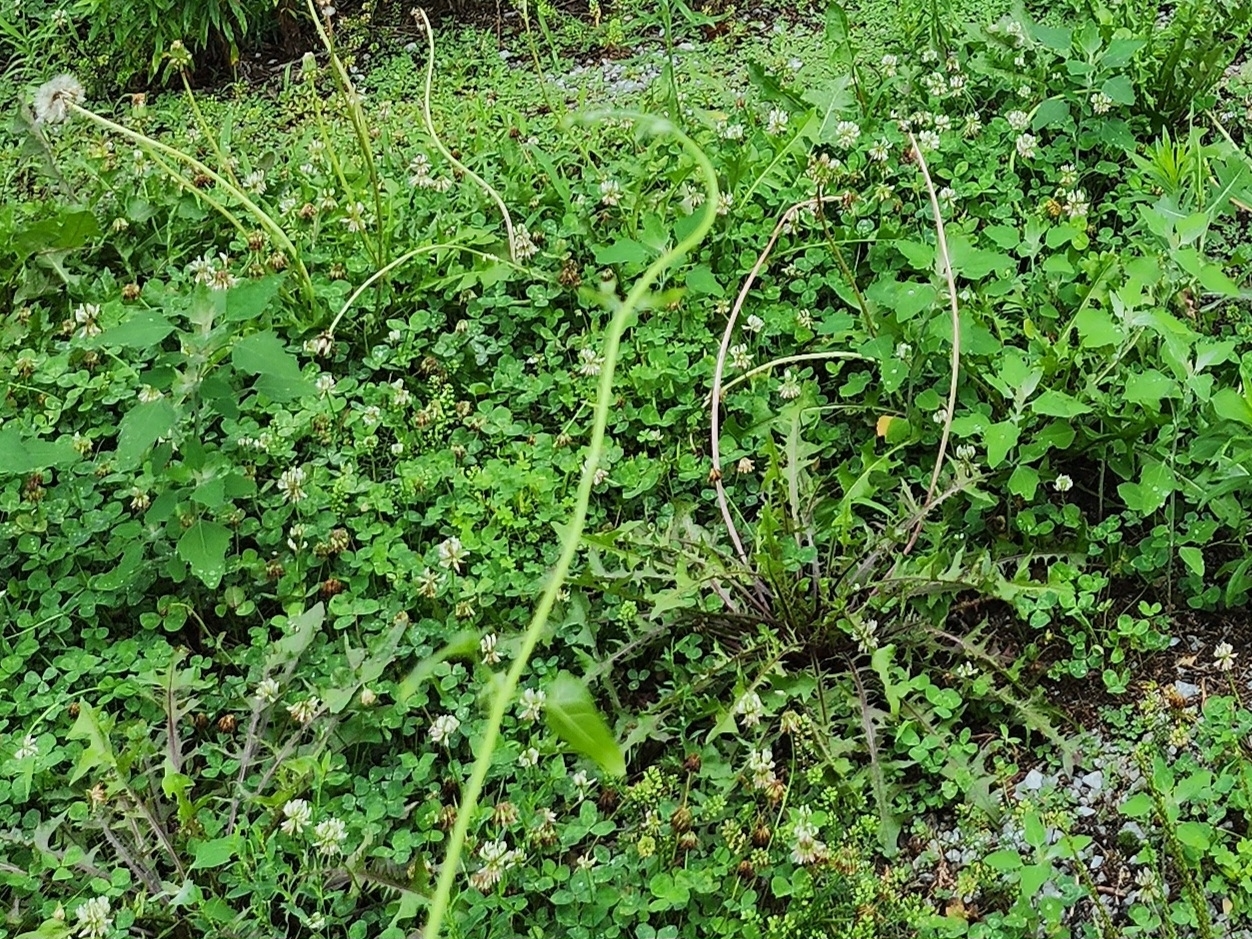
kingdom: Plantae
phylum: Tracheophyta
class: Magnoliopsida
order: Fabales
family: Fabaceae
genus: Trifolium
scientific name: Trifolium repens
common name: White clover
